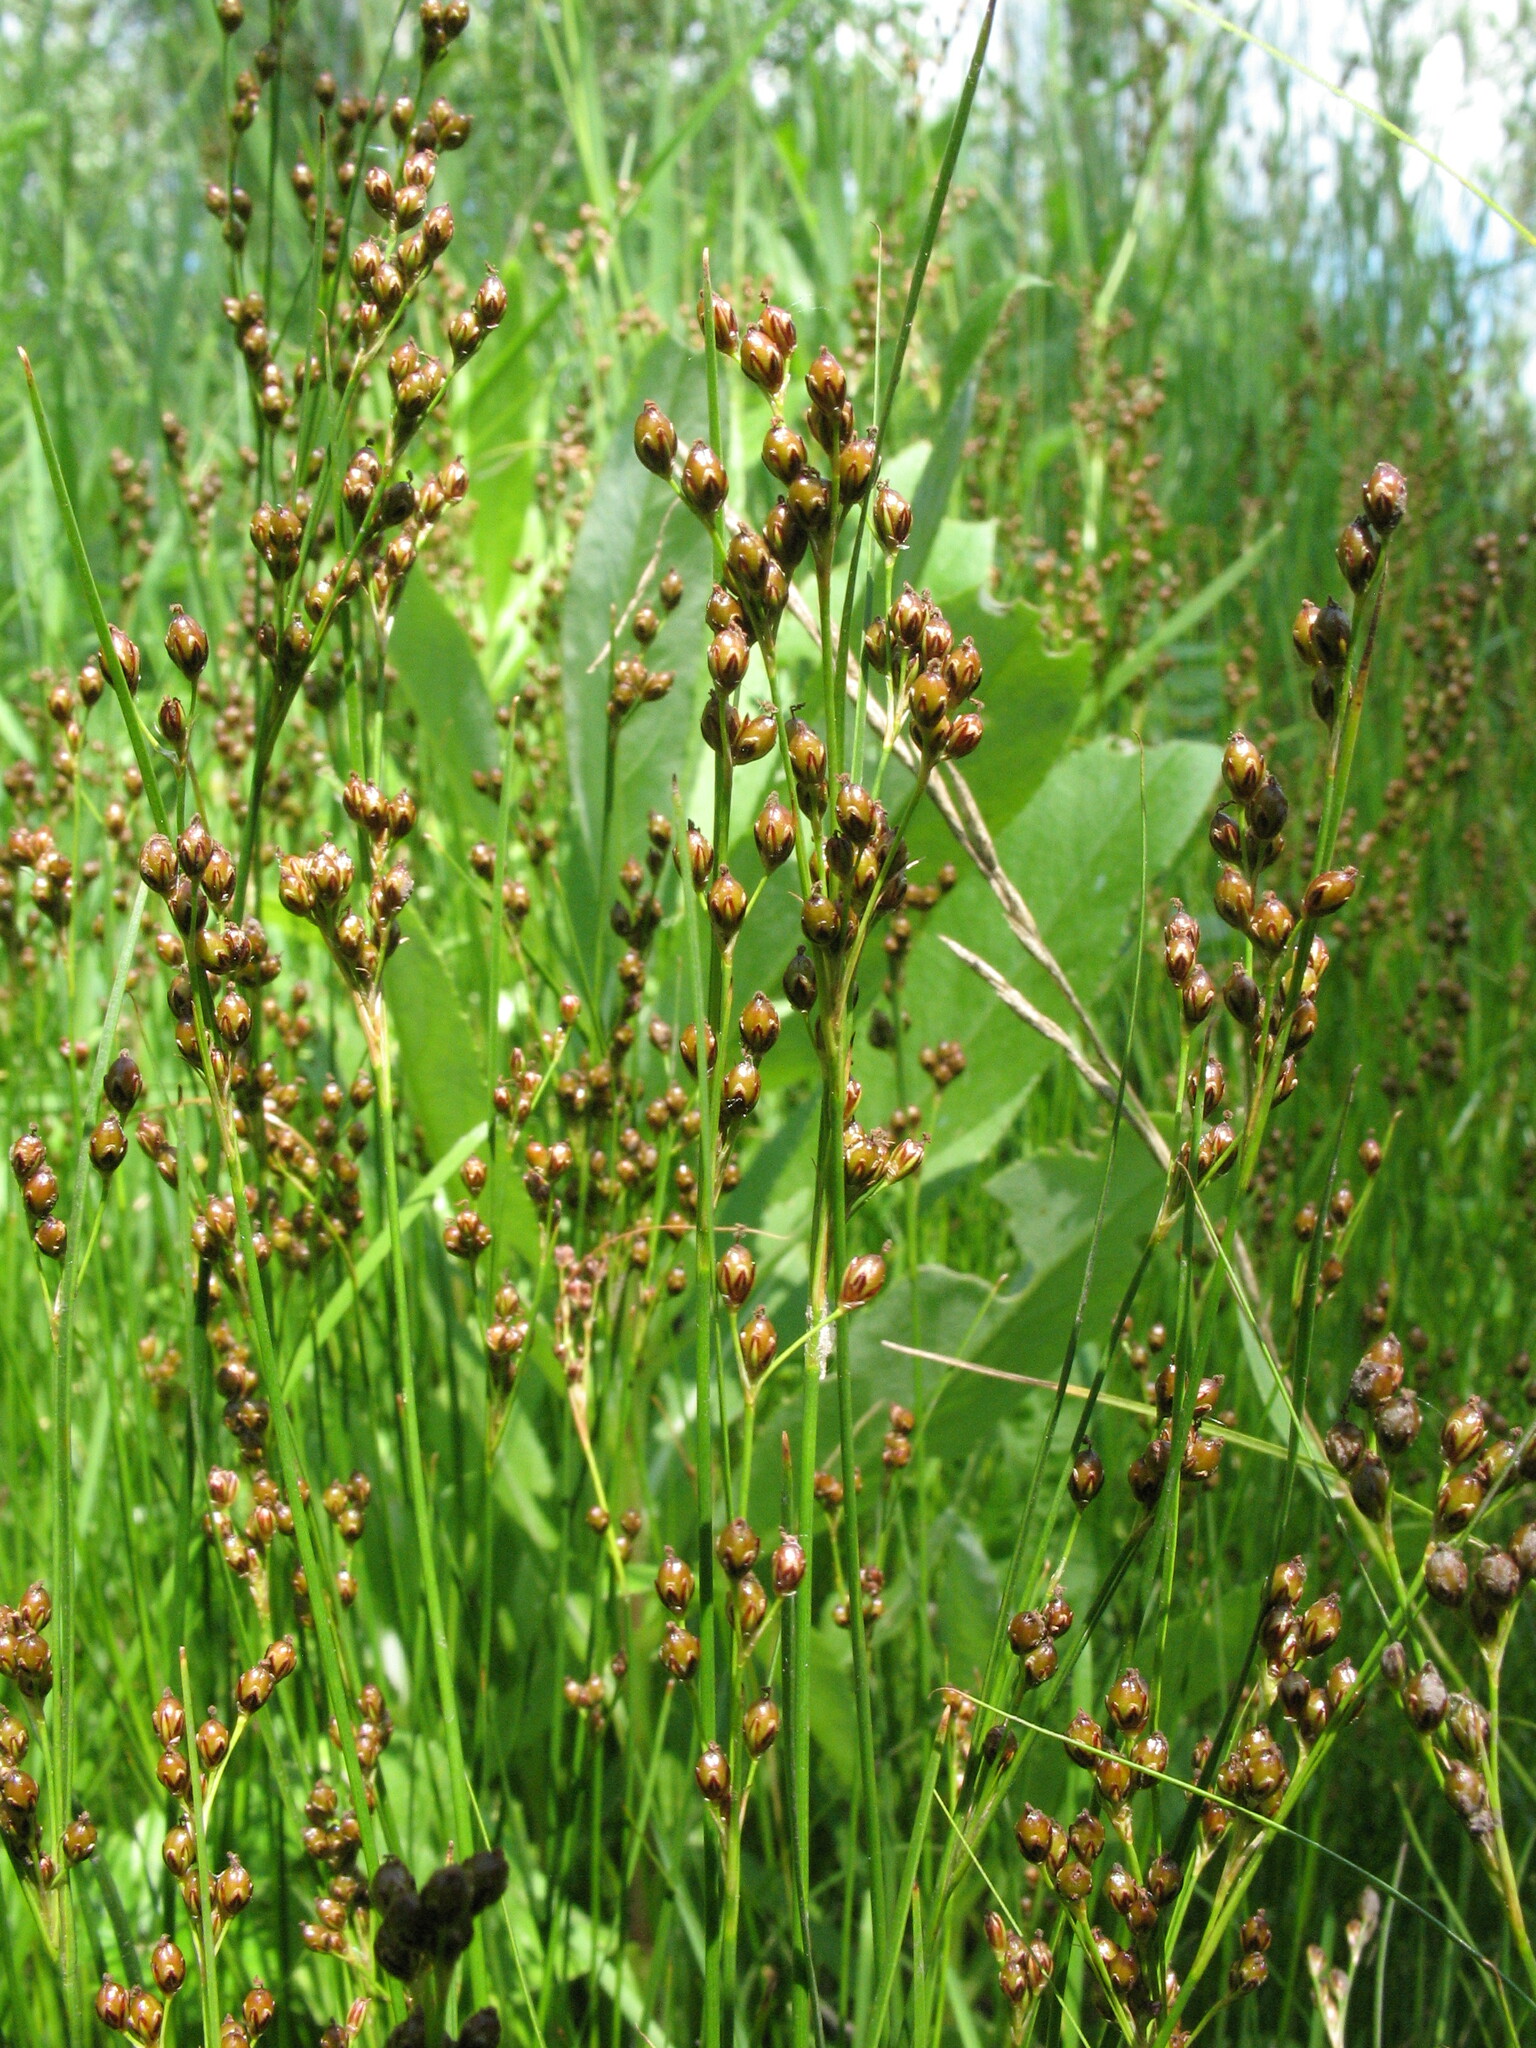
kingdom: Plantae
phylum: Tracheophyta
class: Liliopsida
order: Poales
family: Juncaceae
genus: Juncus
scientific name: Juncus compressus
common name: Round-fruited rush
